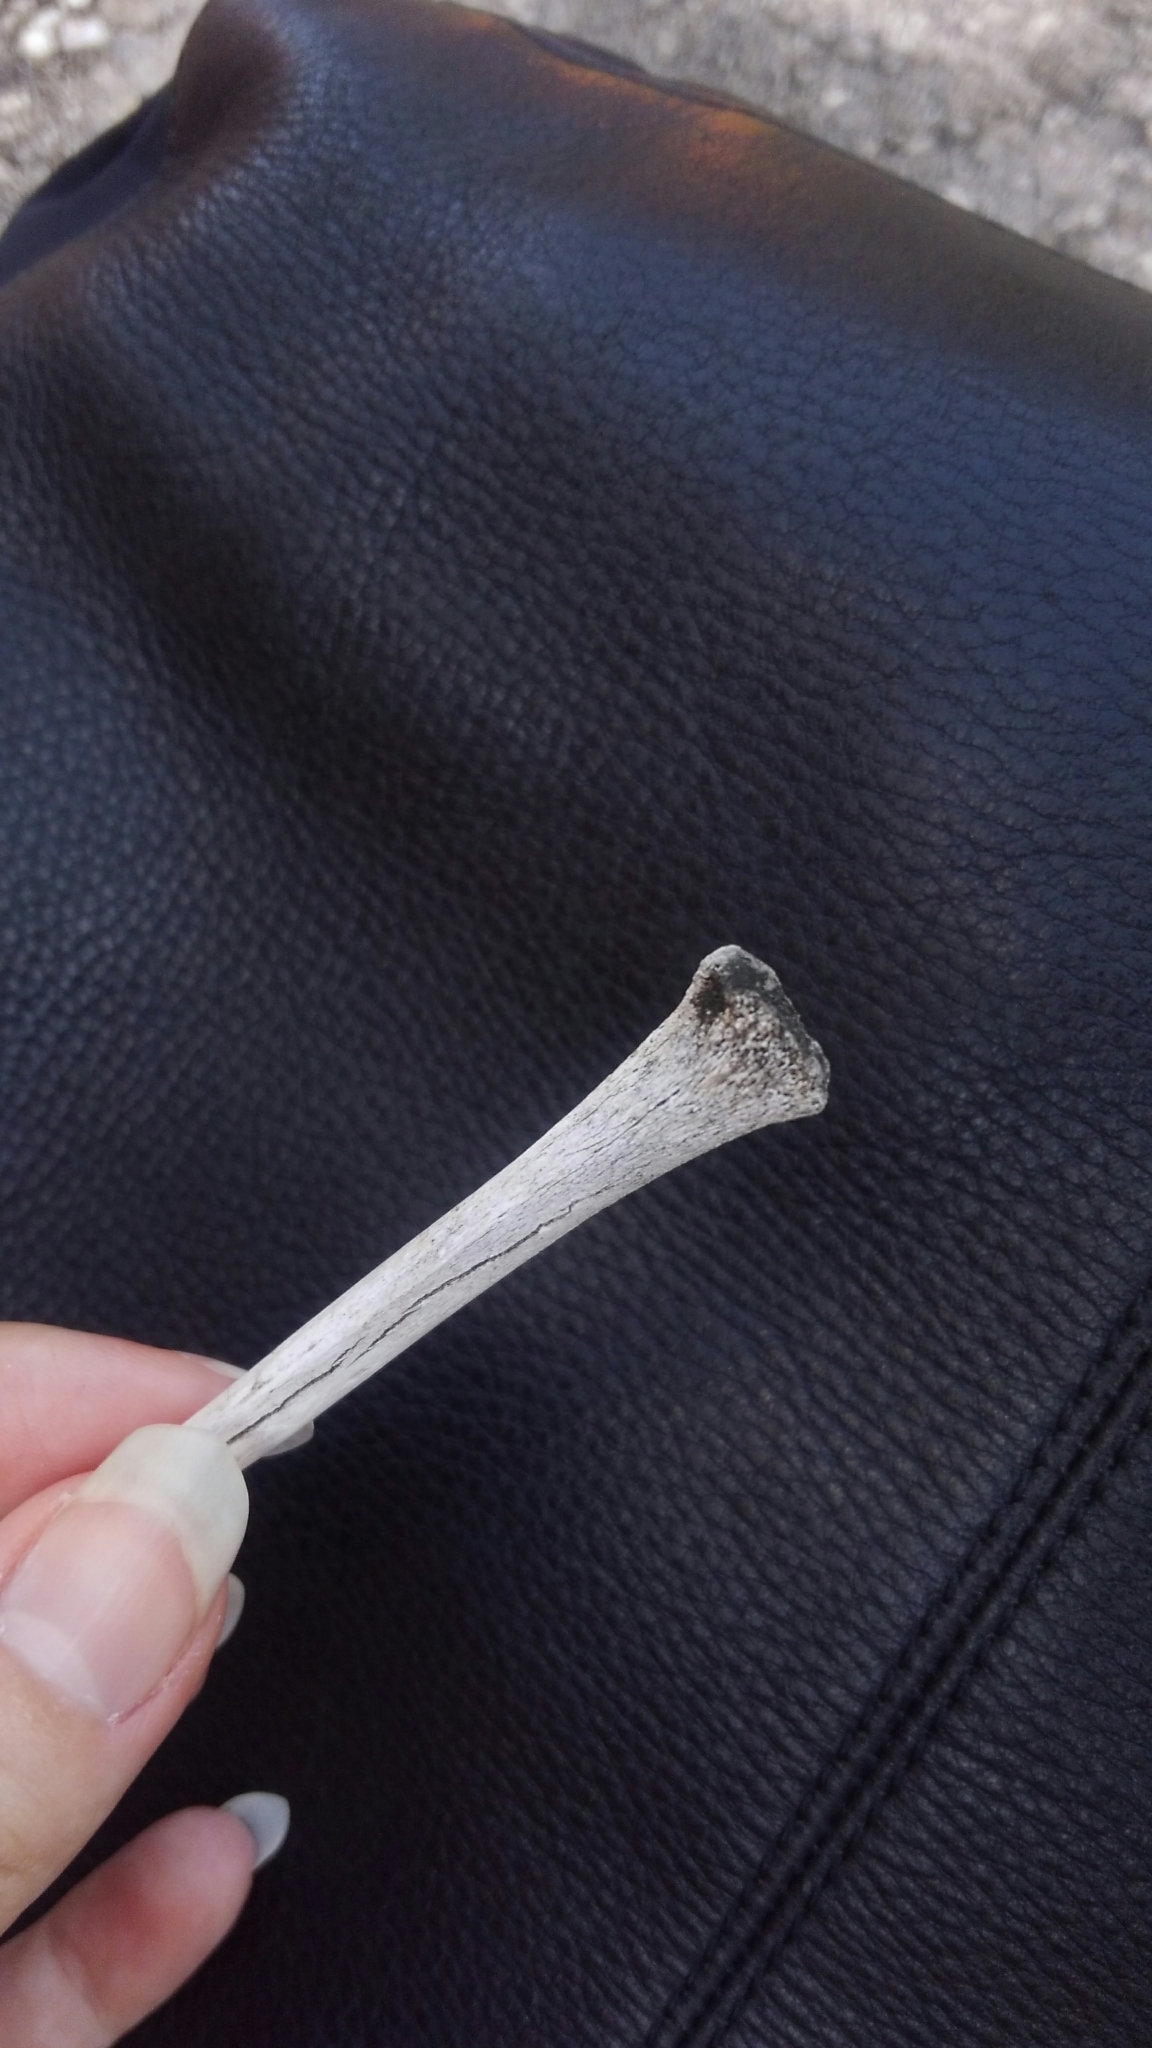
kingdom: Animalia
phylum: Chordata
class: Mammalia
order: Carnivora
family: Procyonidae
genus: Procyon
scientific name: Procyon lotor
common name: Raccoon
